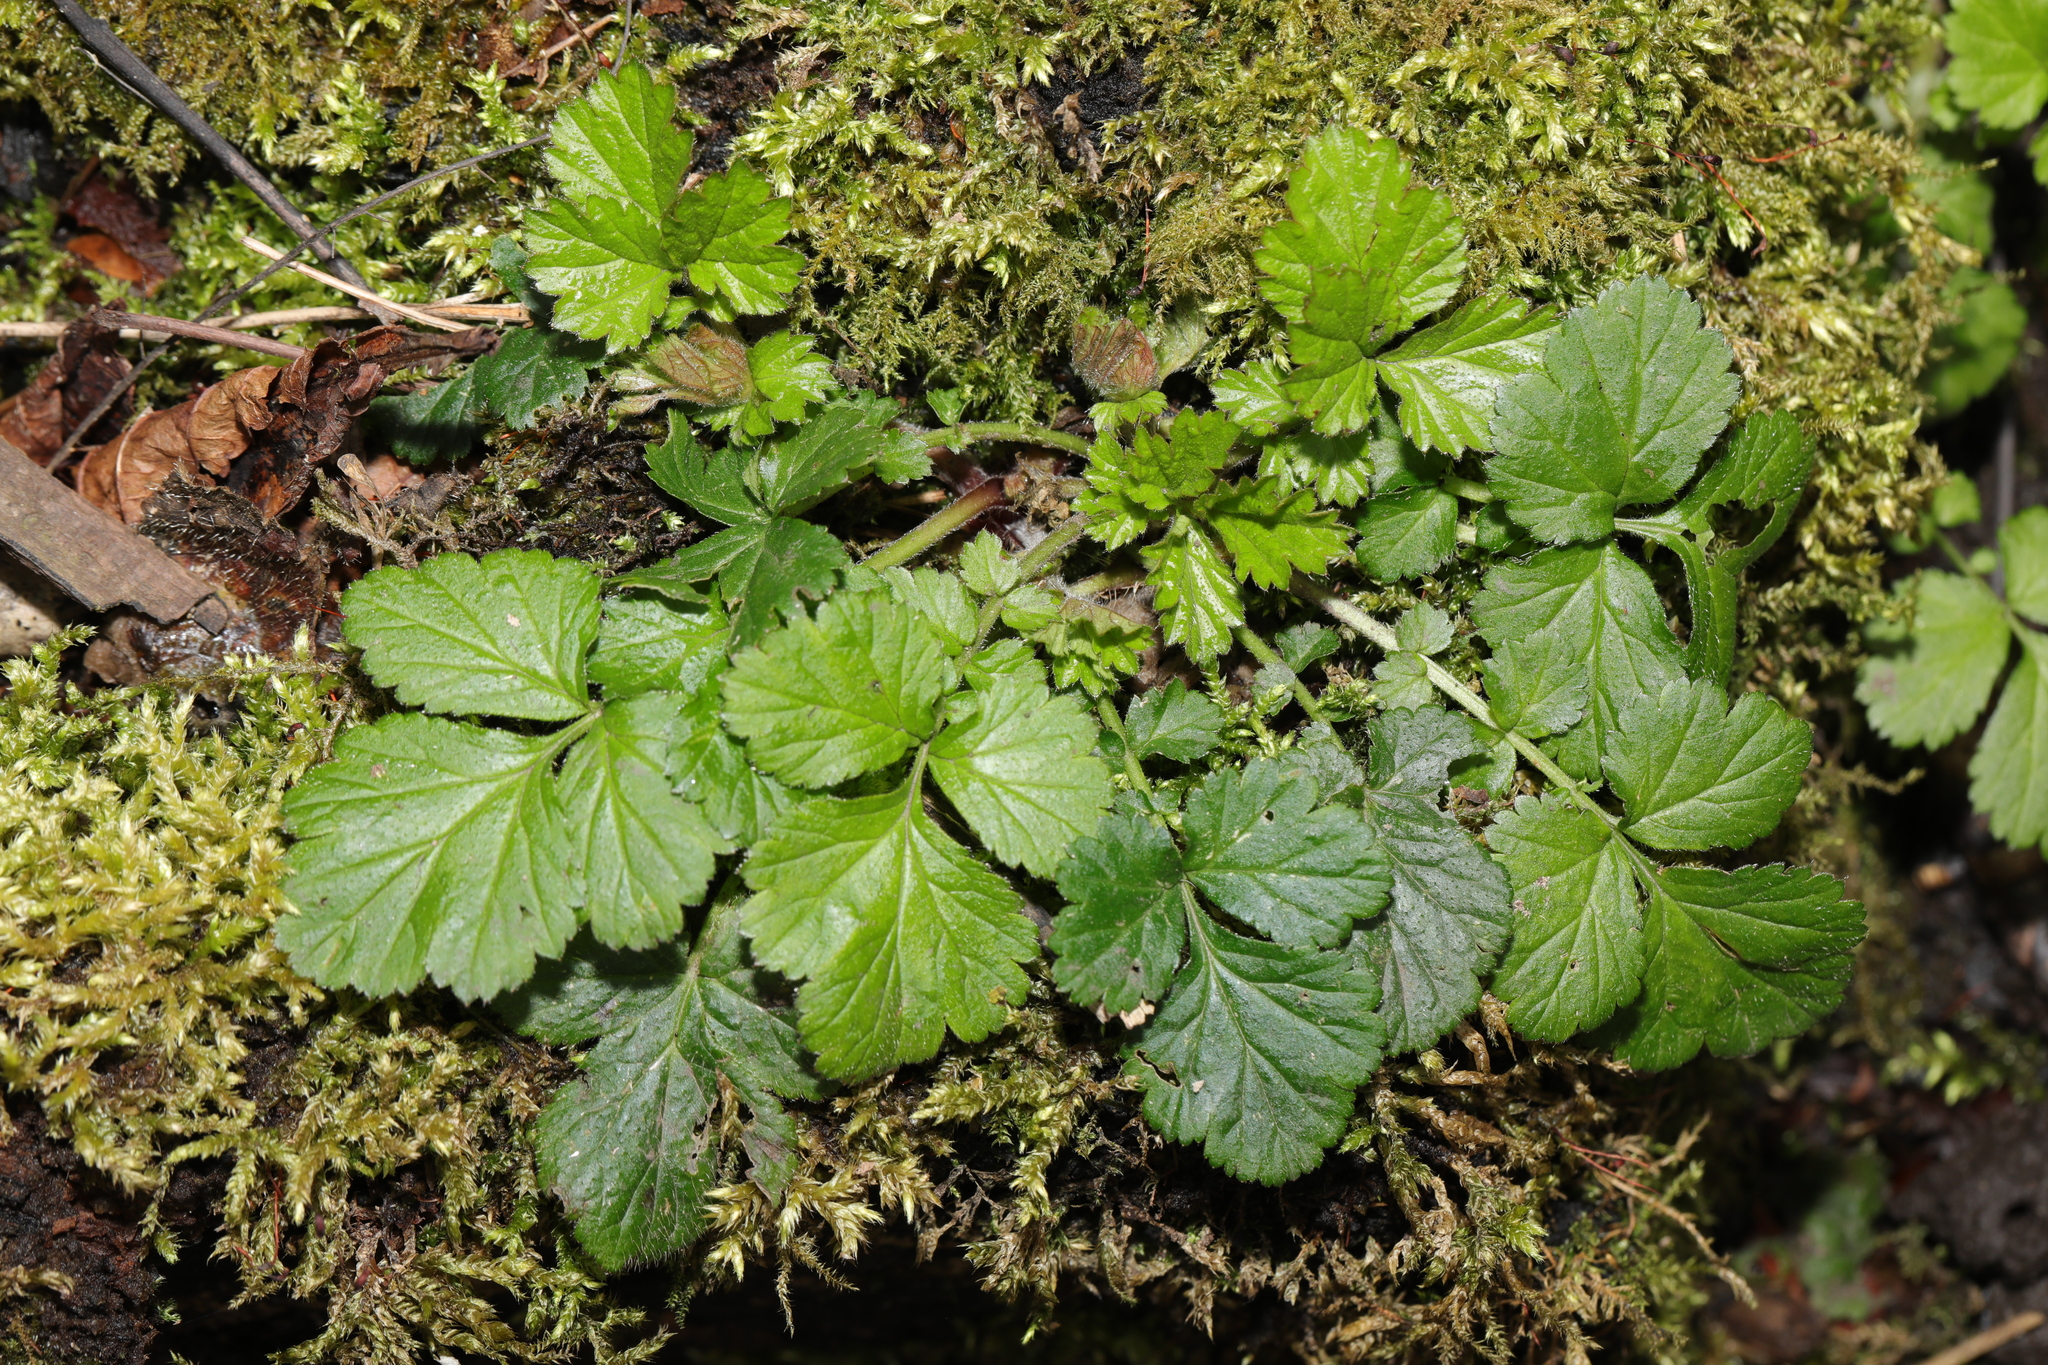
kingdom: Plantae
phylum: Tracheophyta
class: Magnoliopsida
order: Rosales
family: Rosaceae
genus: Geum
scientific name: Geum urbanum
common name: Wood avens
